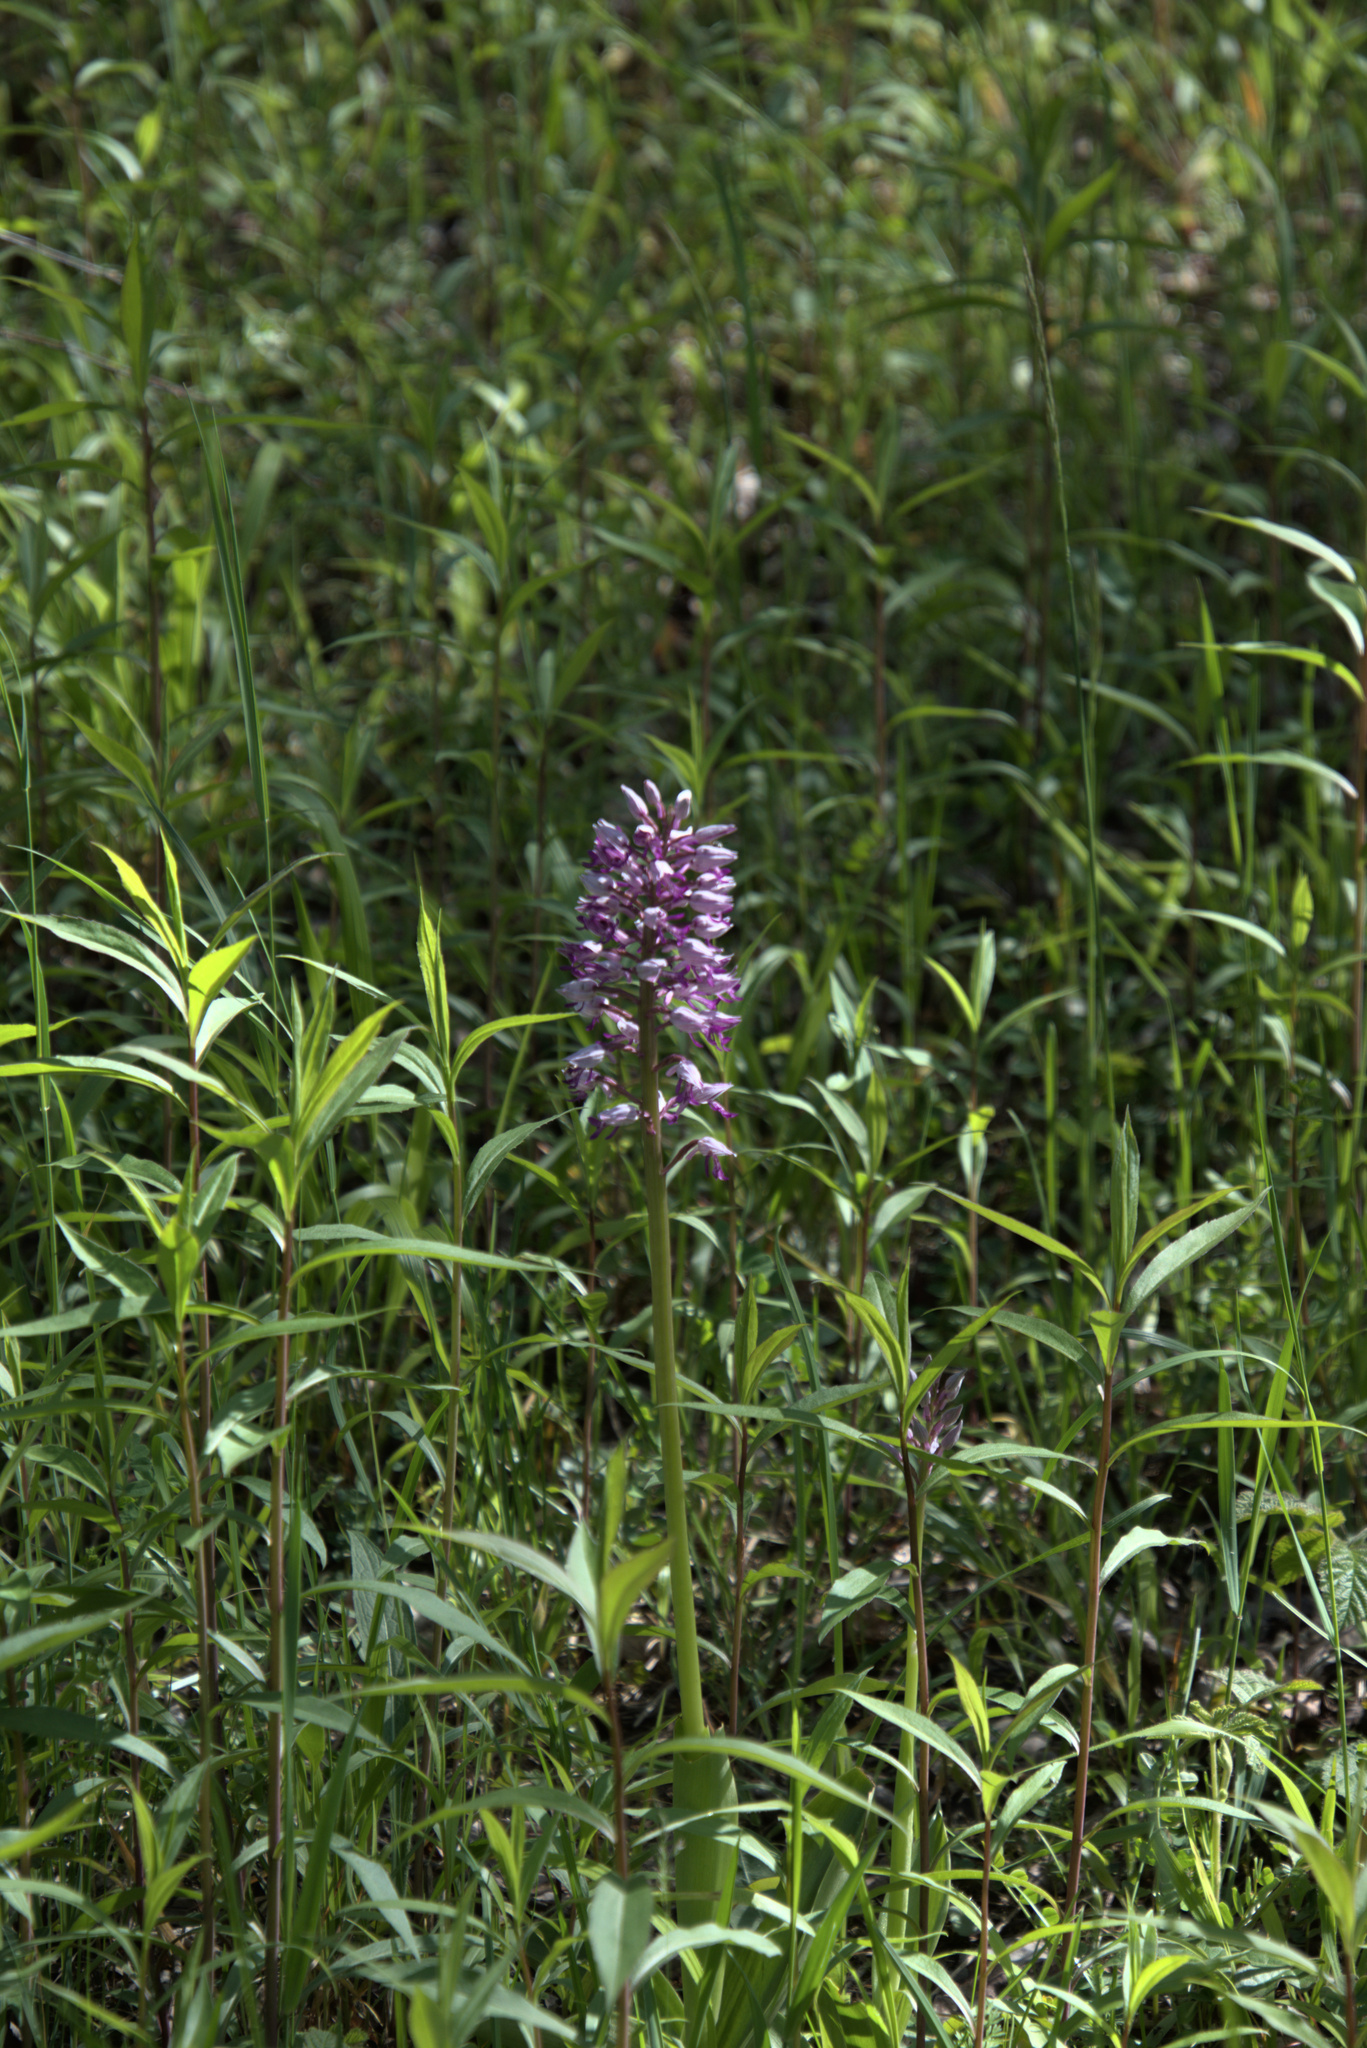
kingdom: Plantae
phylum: Tracheophyta
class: Liliopsida
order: Asparagales
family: Orchidaceae
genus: Orchis
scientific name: Orchis militaris
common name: Military orchid
